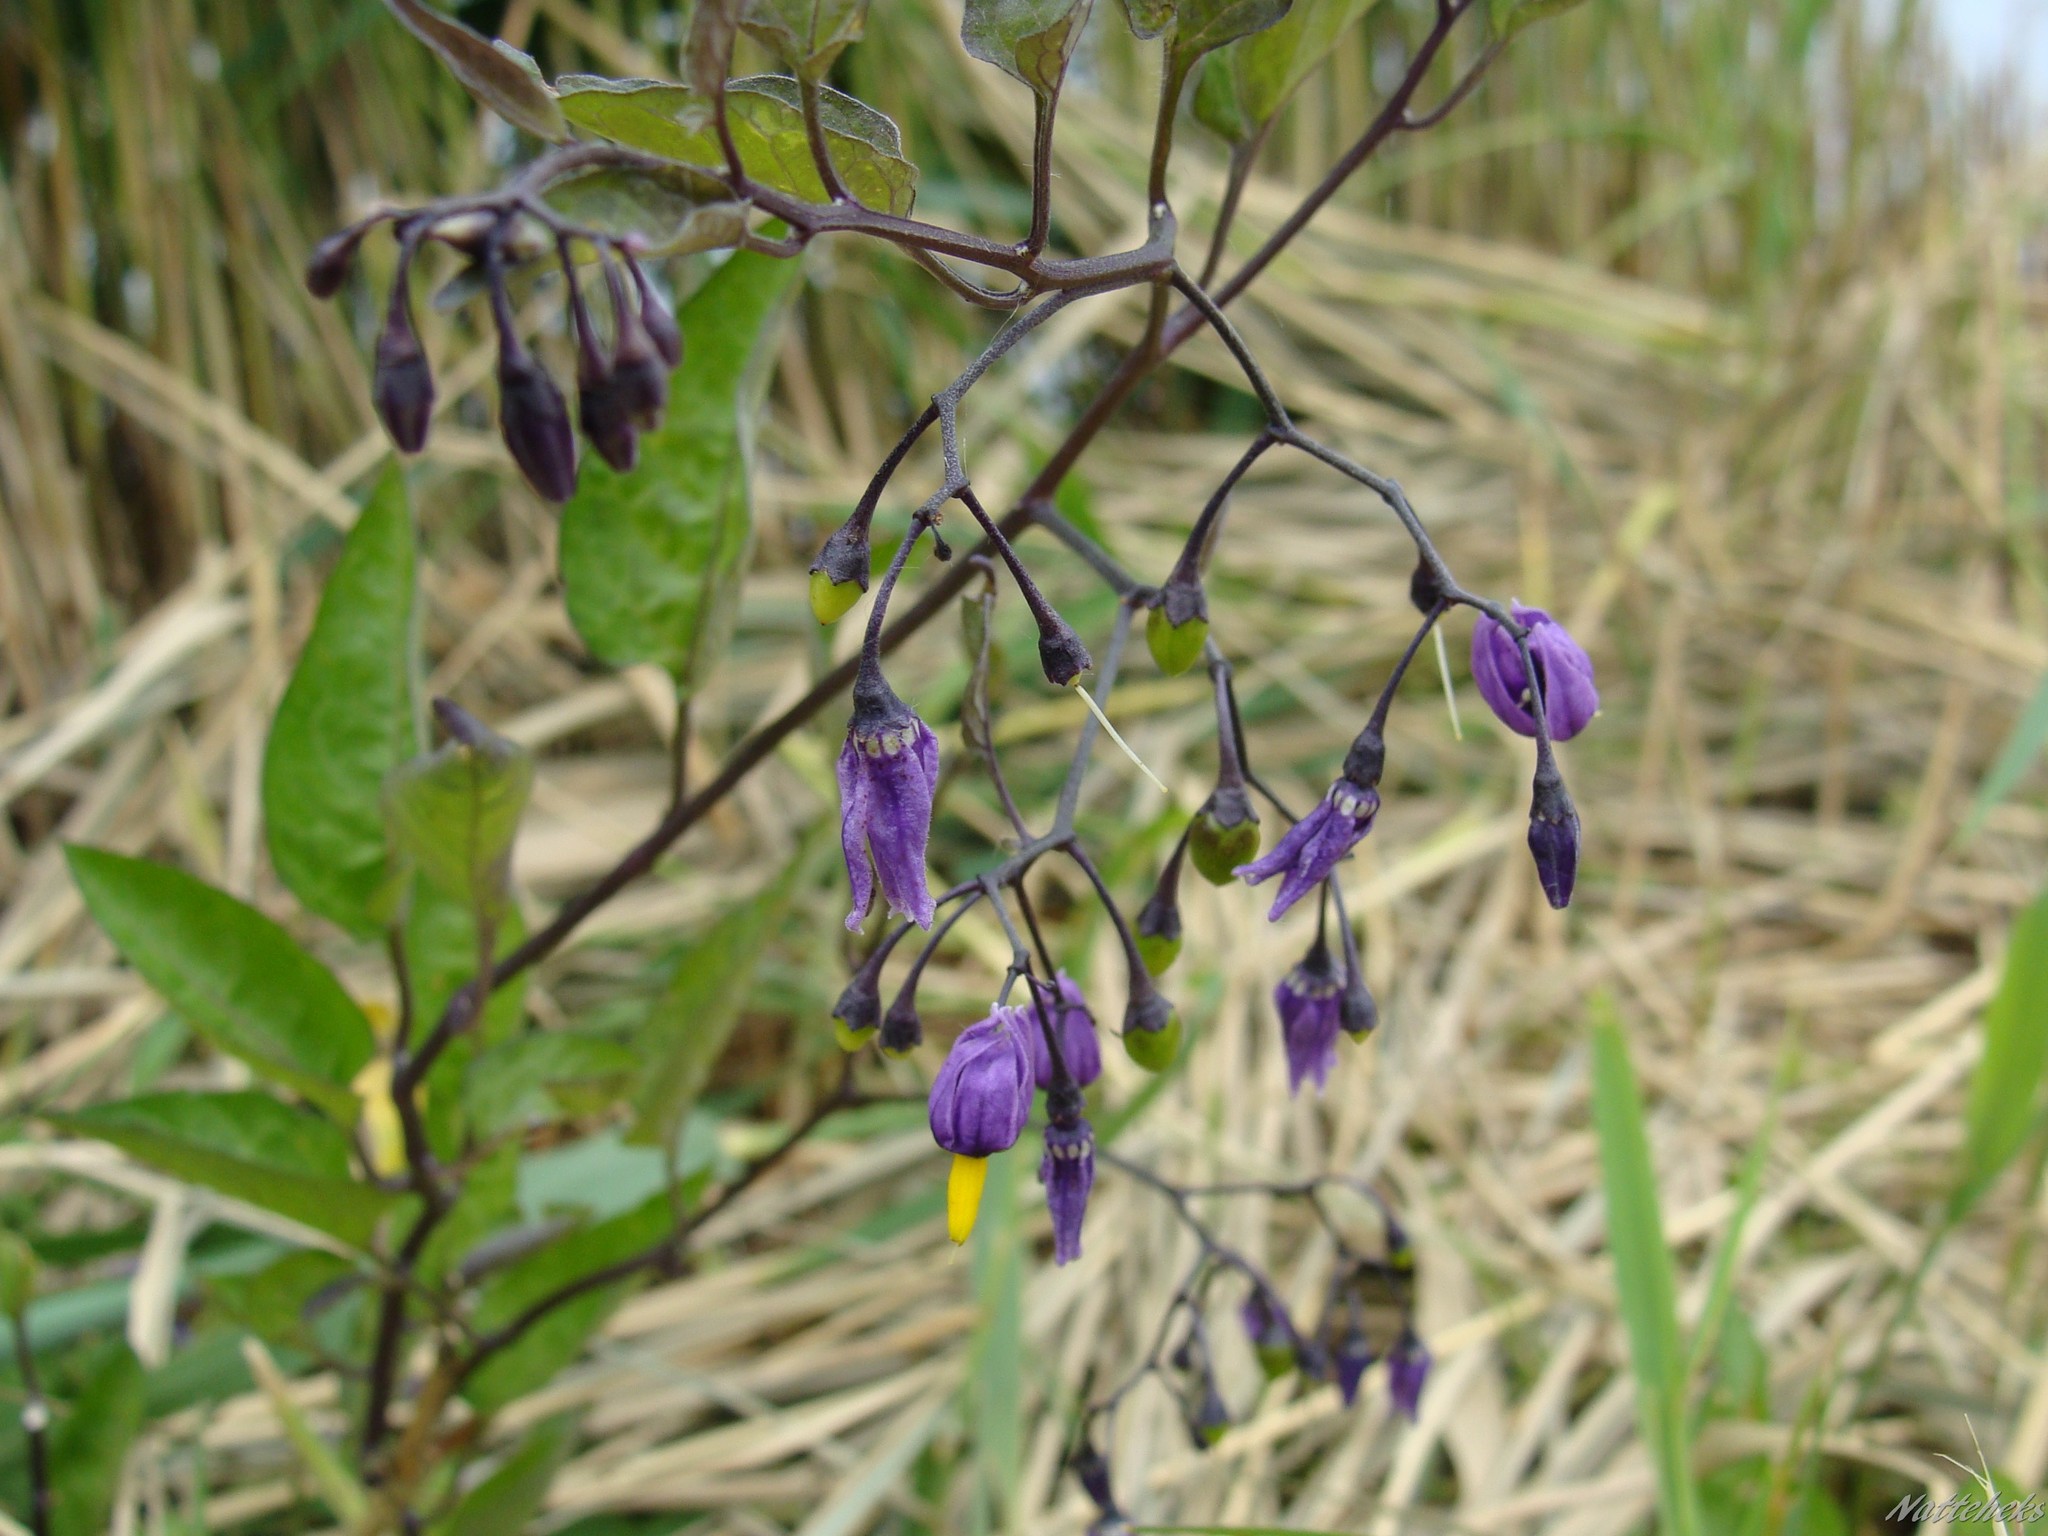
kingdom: Plantae
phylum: Tracheophyta
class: Magnoliopsida
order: Solanales
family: Solanaceae
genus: Solanum
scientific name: Solanum dulcamara
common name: Climbing nightshade
